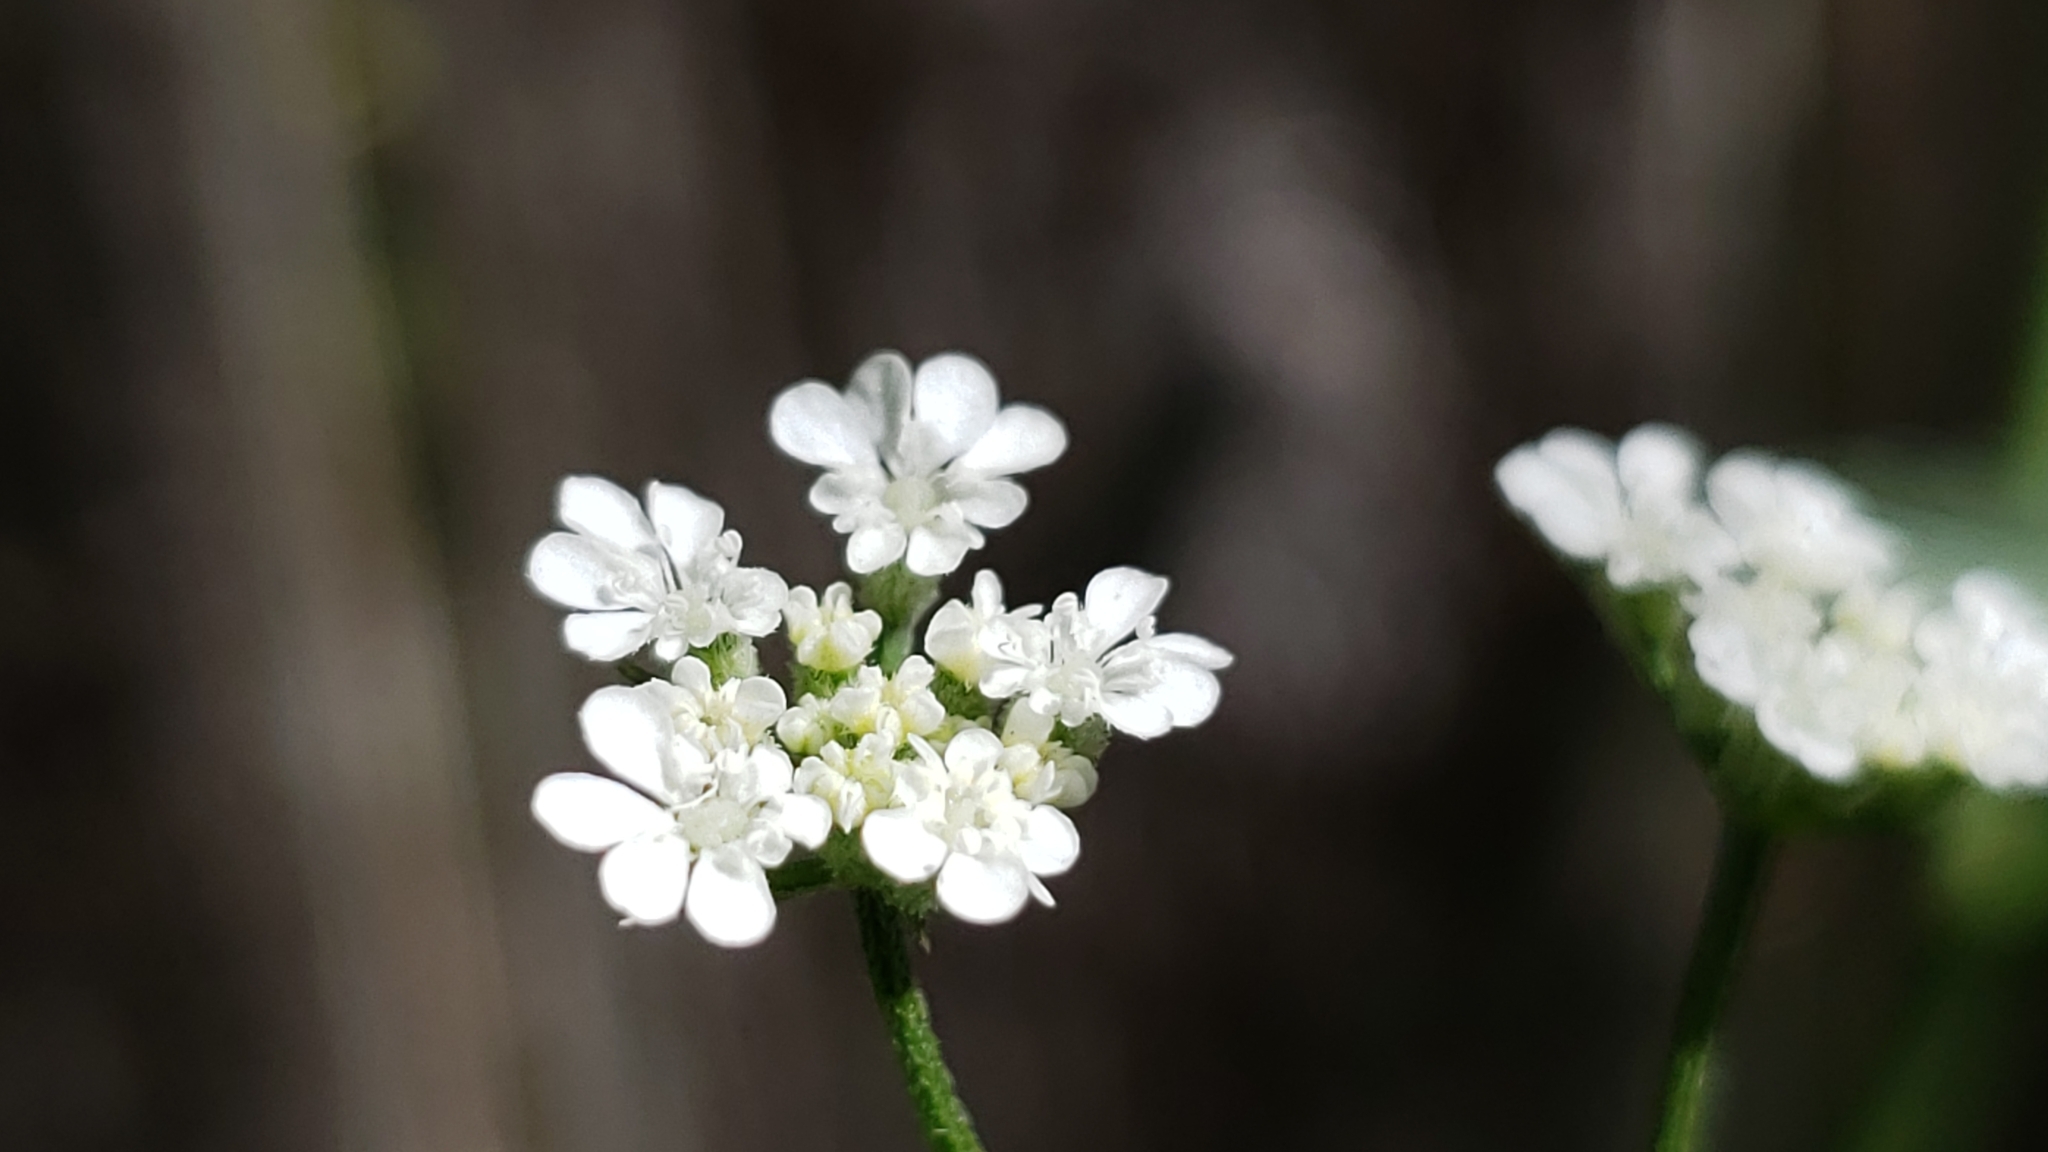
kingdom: Plantae
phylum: Tracheophyta
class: Magnoliopsida
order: Apiales
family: Apiaceae
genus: Torilis
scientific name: Torilis arvensis
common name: Spreading hedge-parsley
